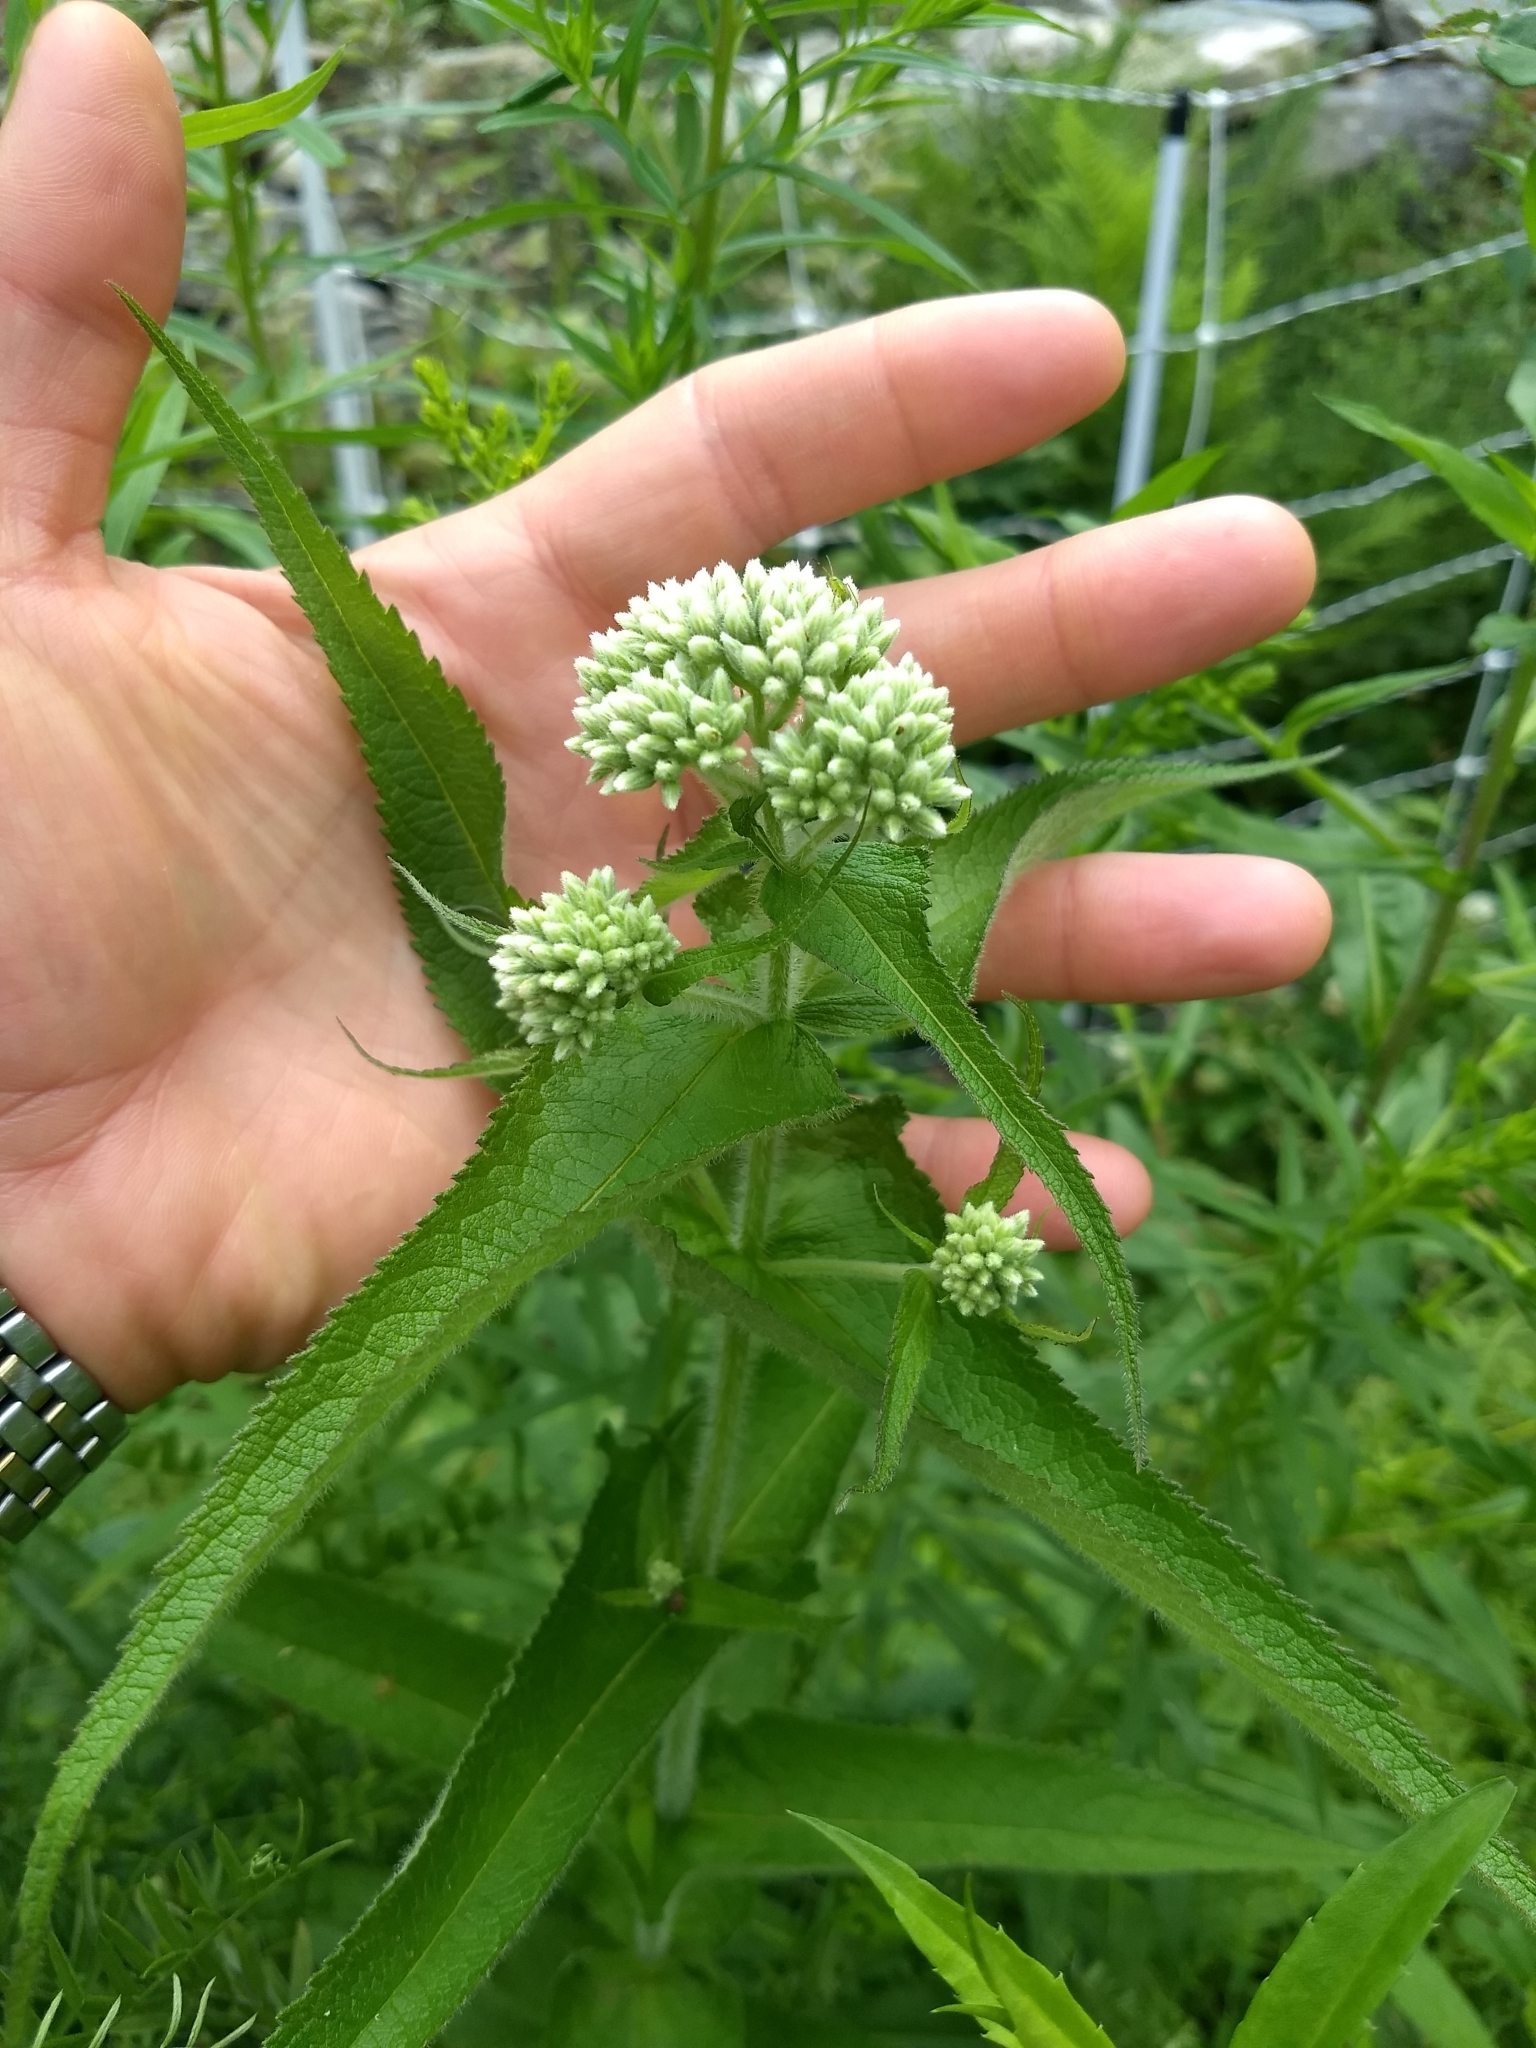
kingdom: Plantae
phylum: Tracheophyta
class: Magnoliopsida
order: Asterales
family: Asteraceae
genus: Eupatorium
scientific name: Eupatorium perfoliatum
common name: Boneset
